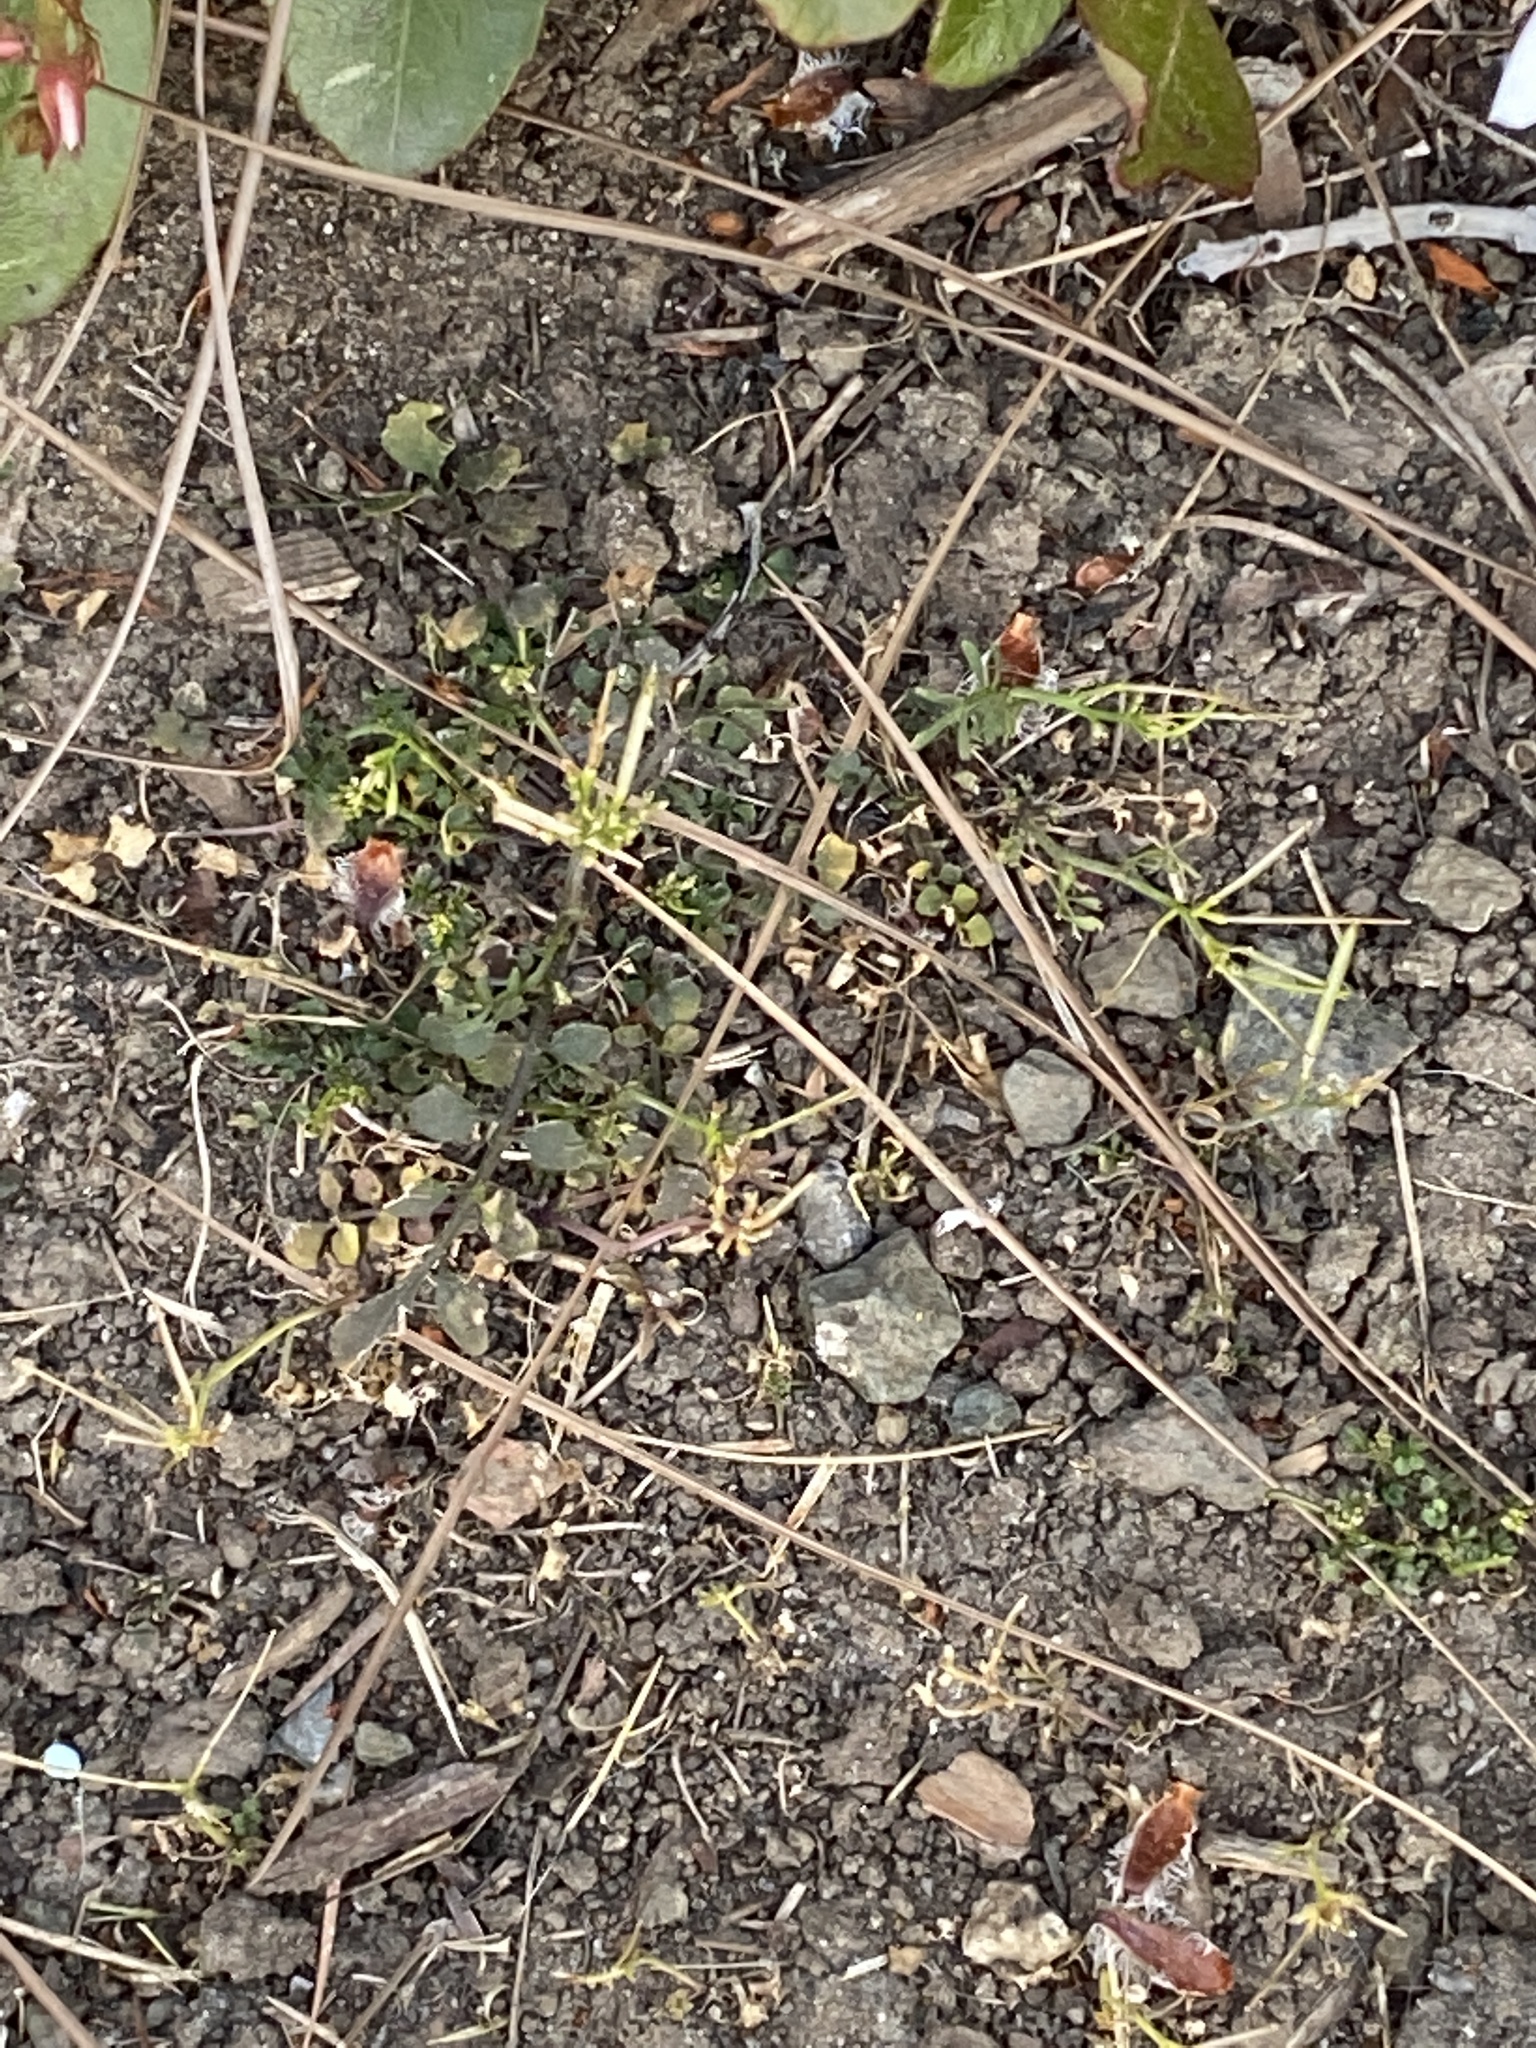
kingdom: Plantae
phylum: Tracheophyta
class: Magnoliopsida
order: Brassicales
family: Brassicaceae
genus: Cardamine
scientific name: Cardamine hirsuta
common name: Hairy bittercress
